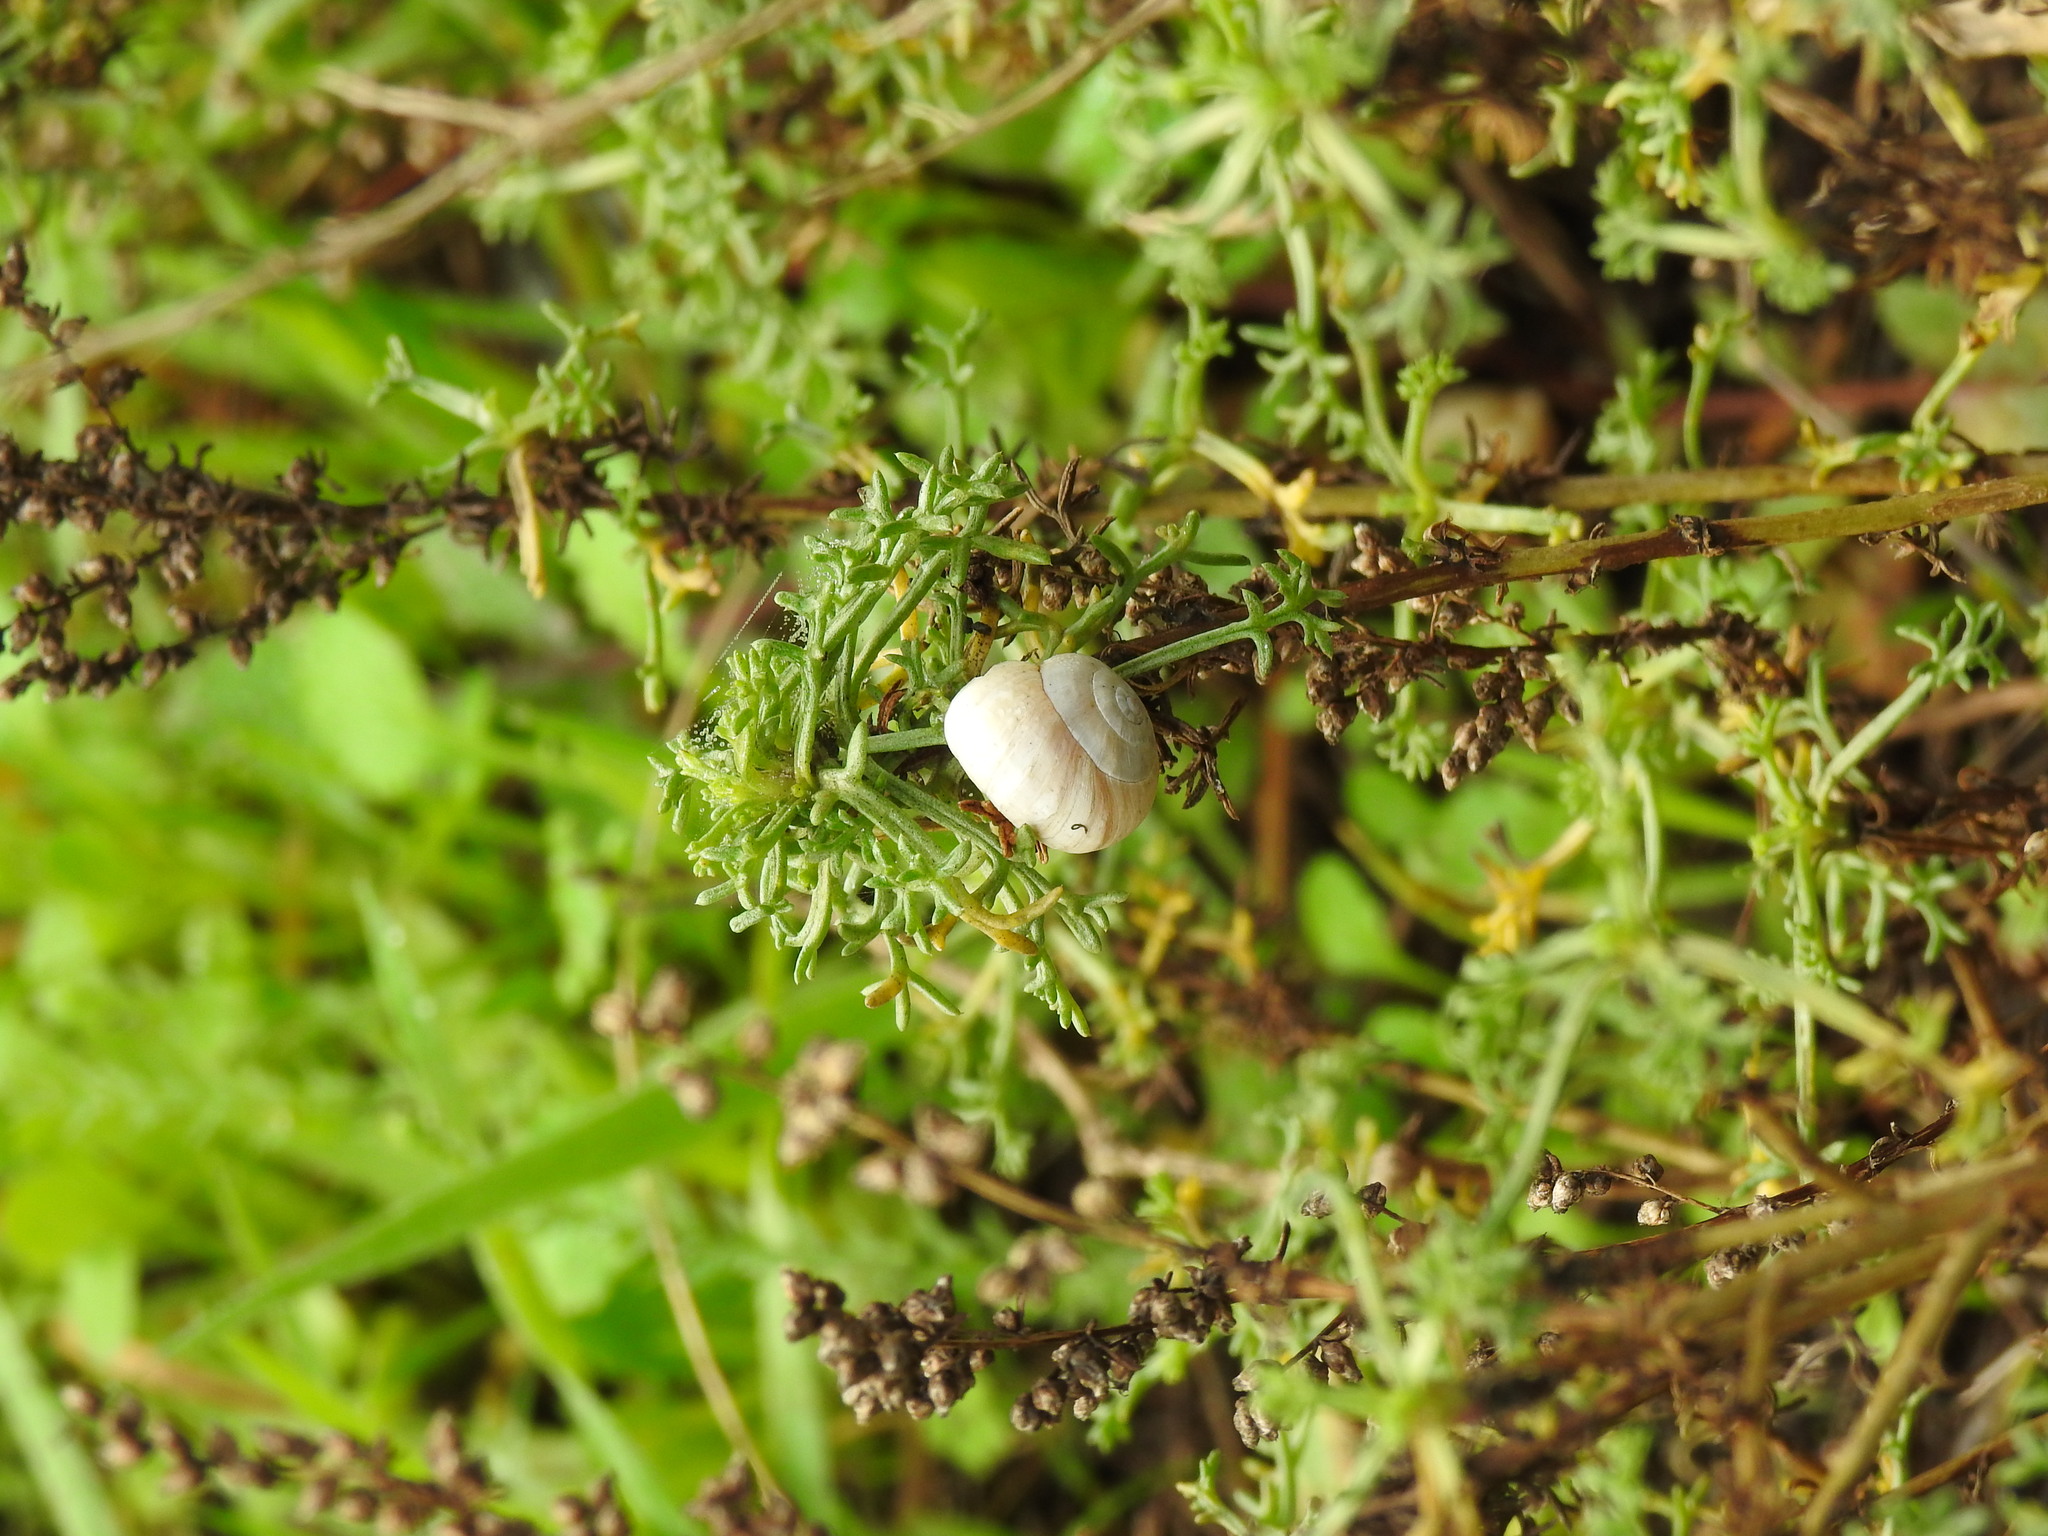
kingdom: Animalia
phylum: Mollusca
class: Gastropoda
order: Stylommatophora
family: Helicidae
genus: Theba
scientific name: Theba pisana
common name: White snail
